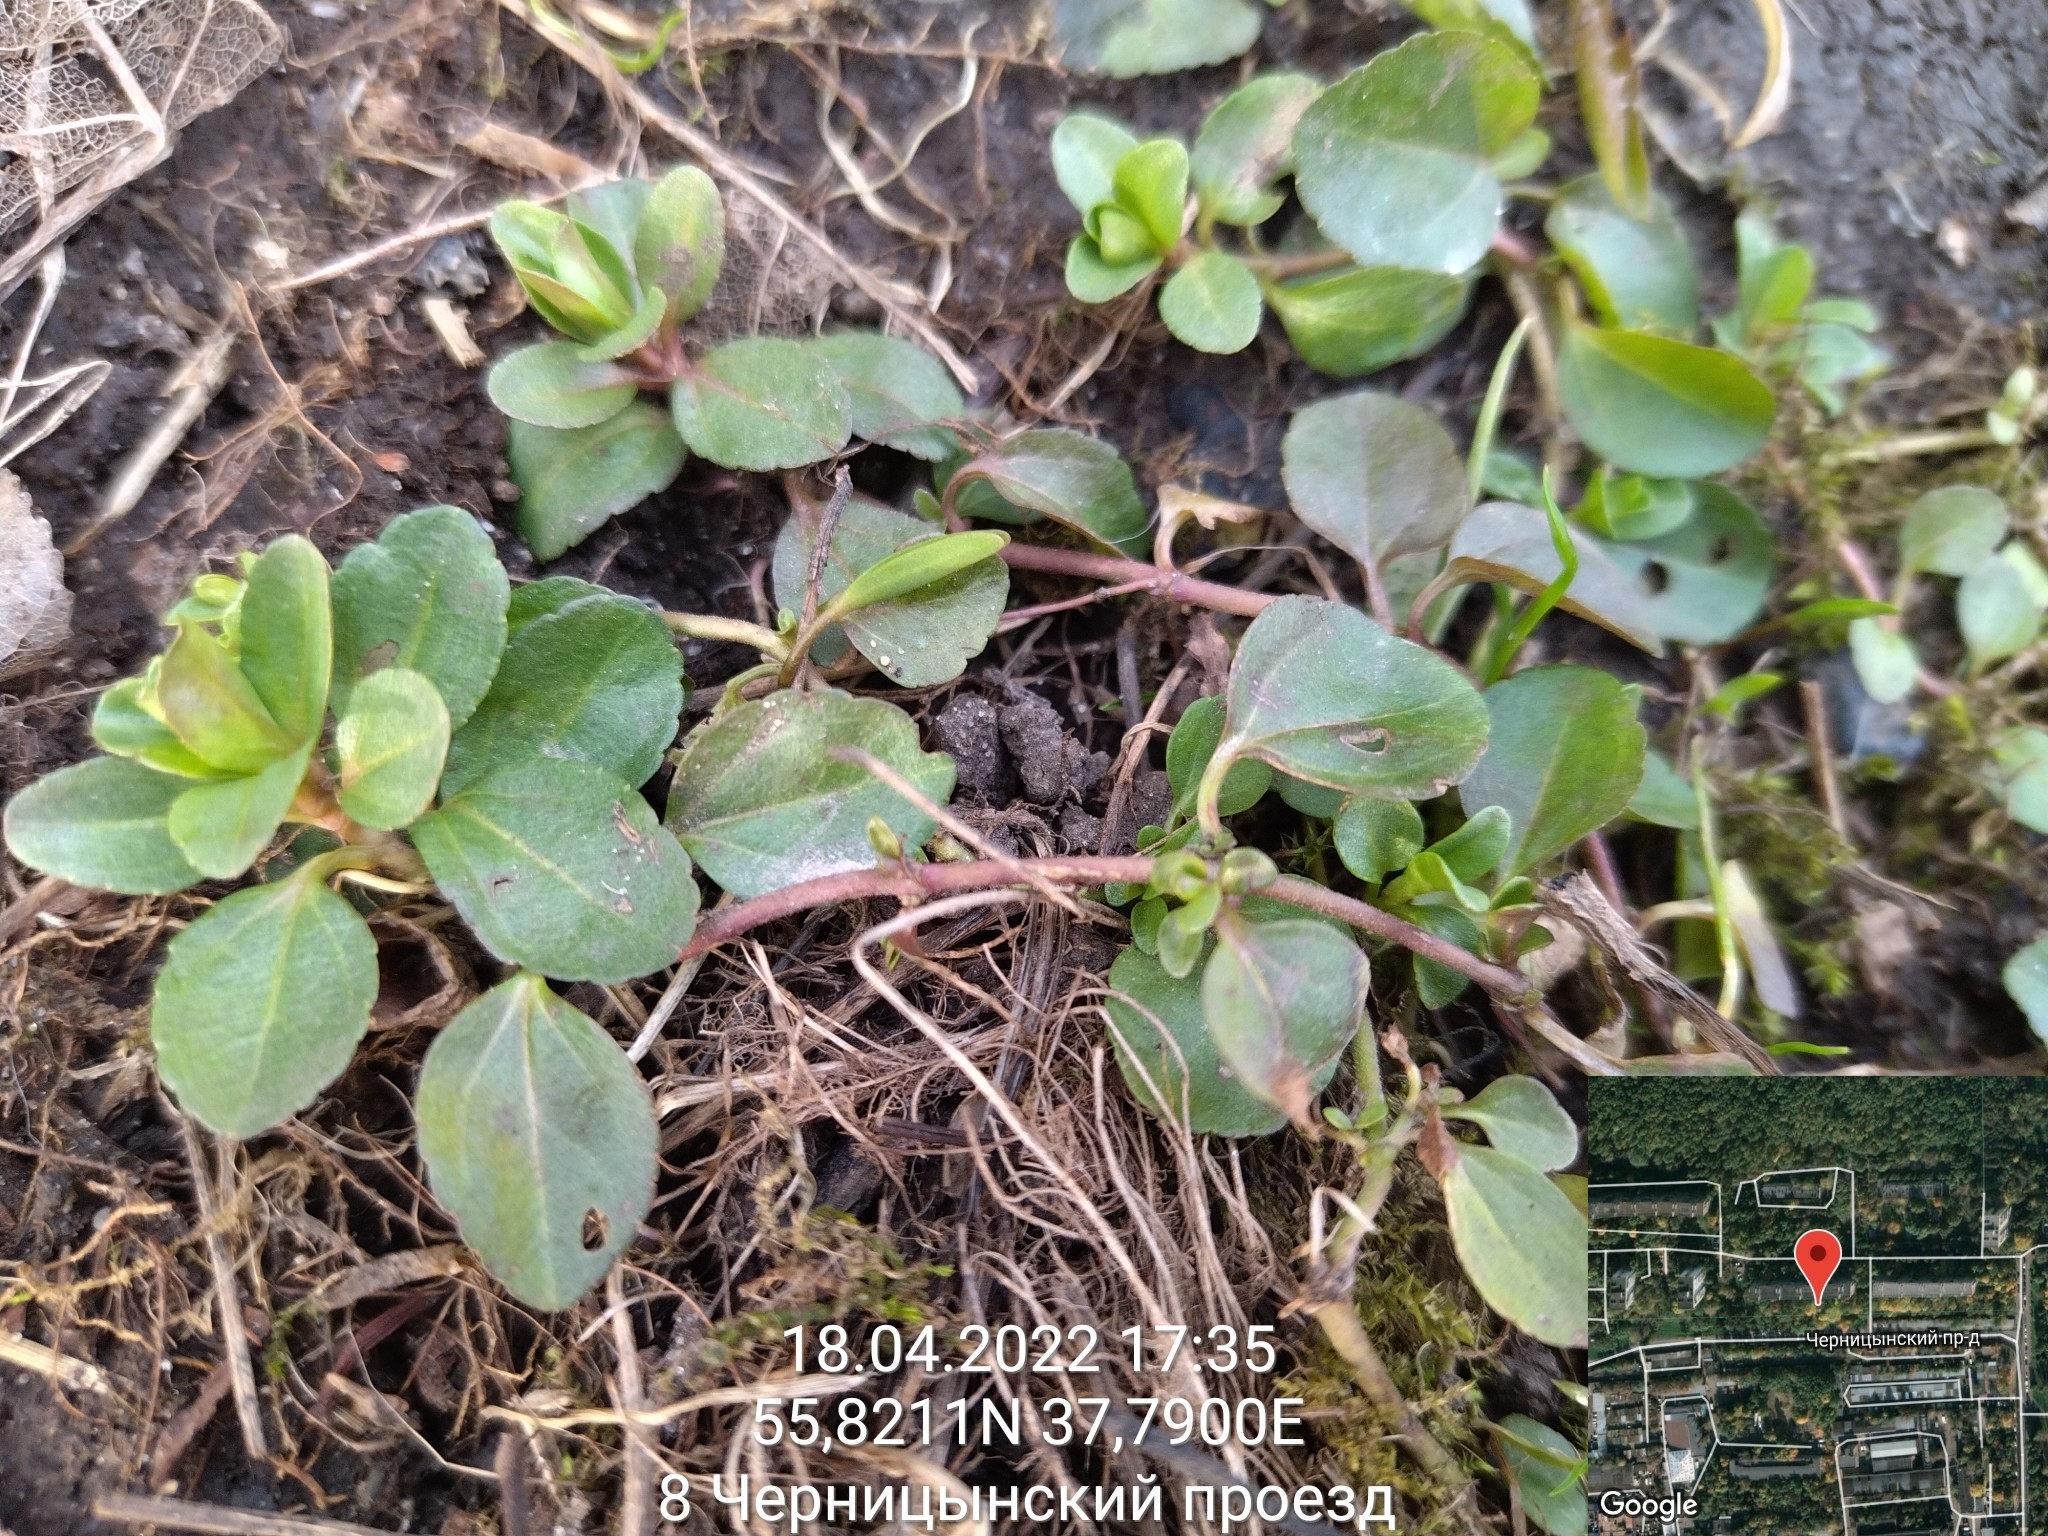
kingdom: Plantae
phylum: Tracheophyta
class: Magnoliopsida
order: Lamiales
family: Plantaginaceae
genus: Veronica
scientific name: Veronica serpyllifolia
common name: Thyme-leaved speedwell
